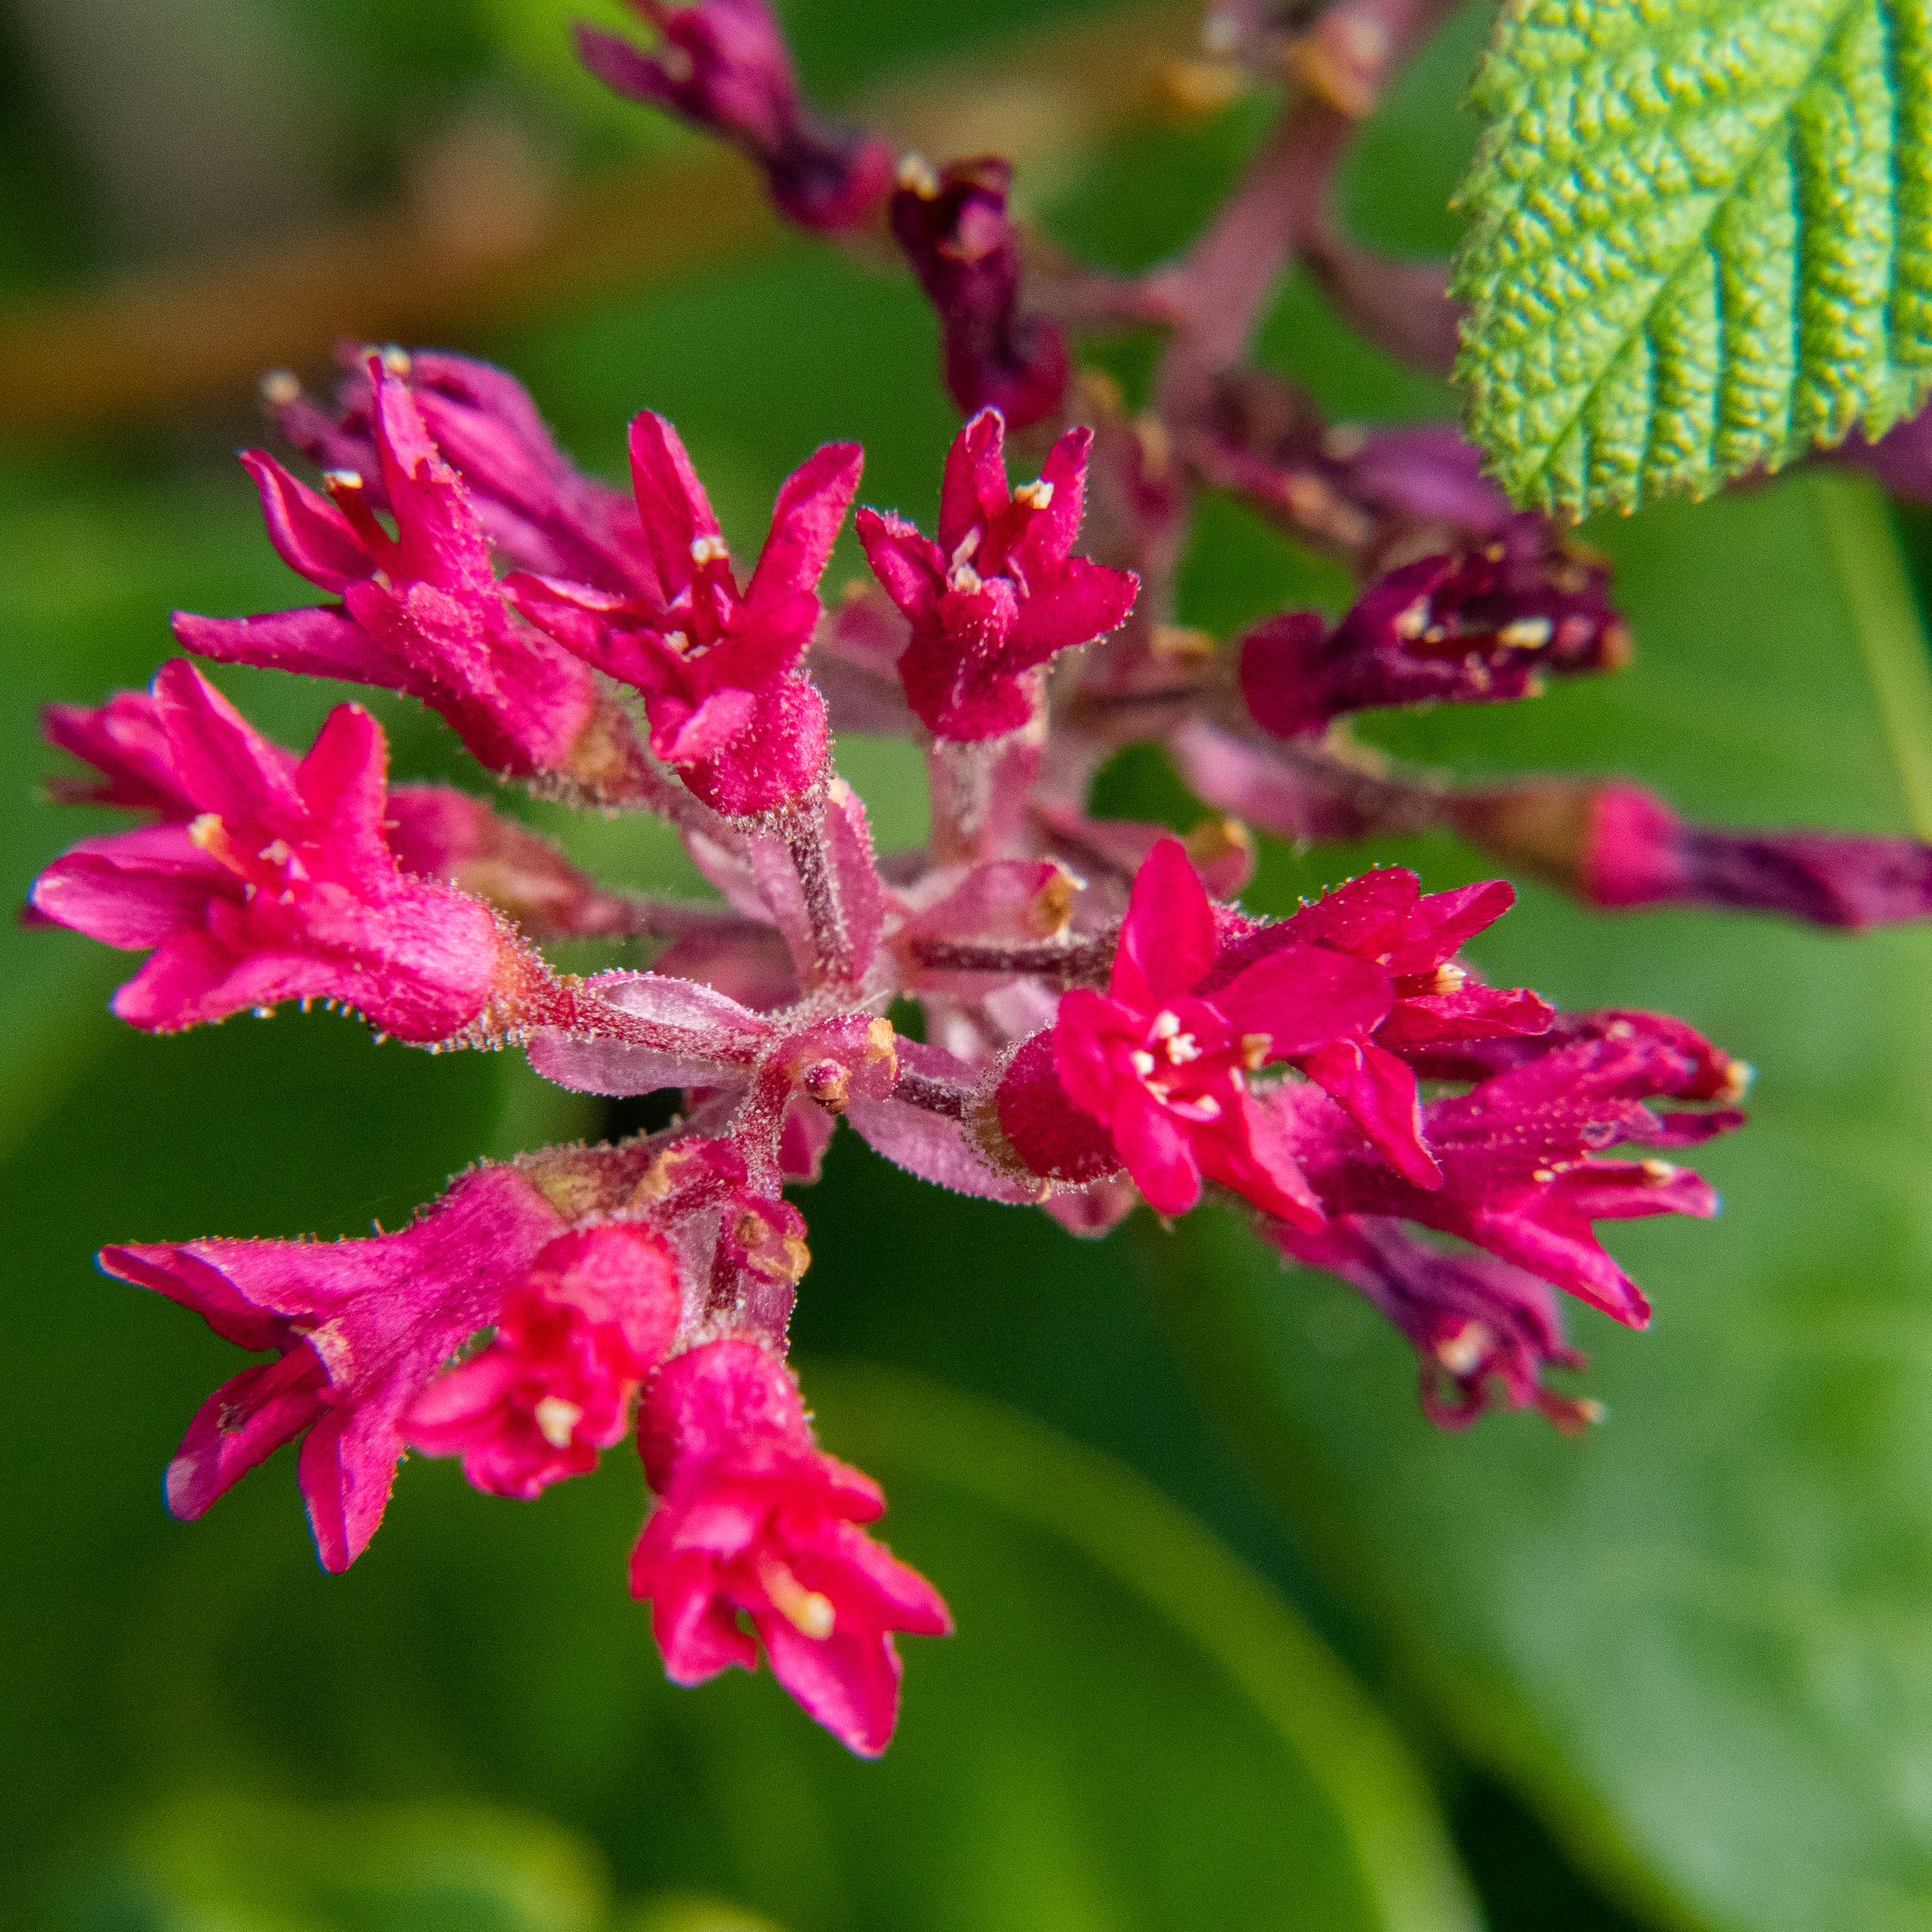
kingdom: Plantae
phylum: Tracheophyta
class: Magnoliopsida
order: Saxifragales
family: Grossulariaceae
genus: Ribes
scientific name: Ribes sanguineum
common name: Flowering currant
